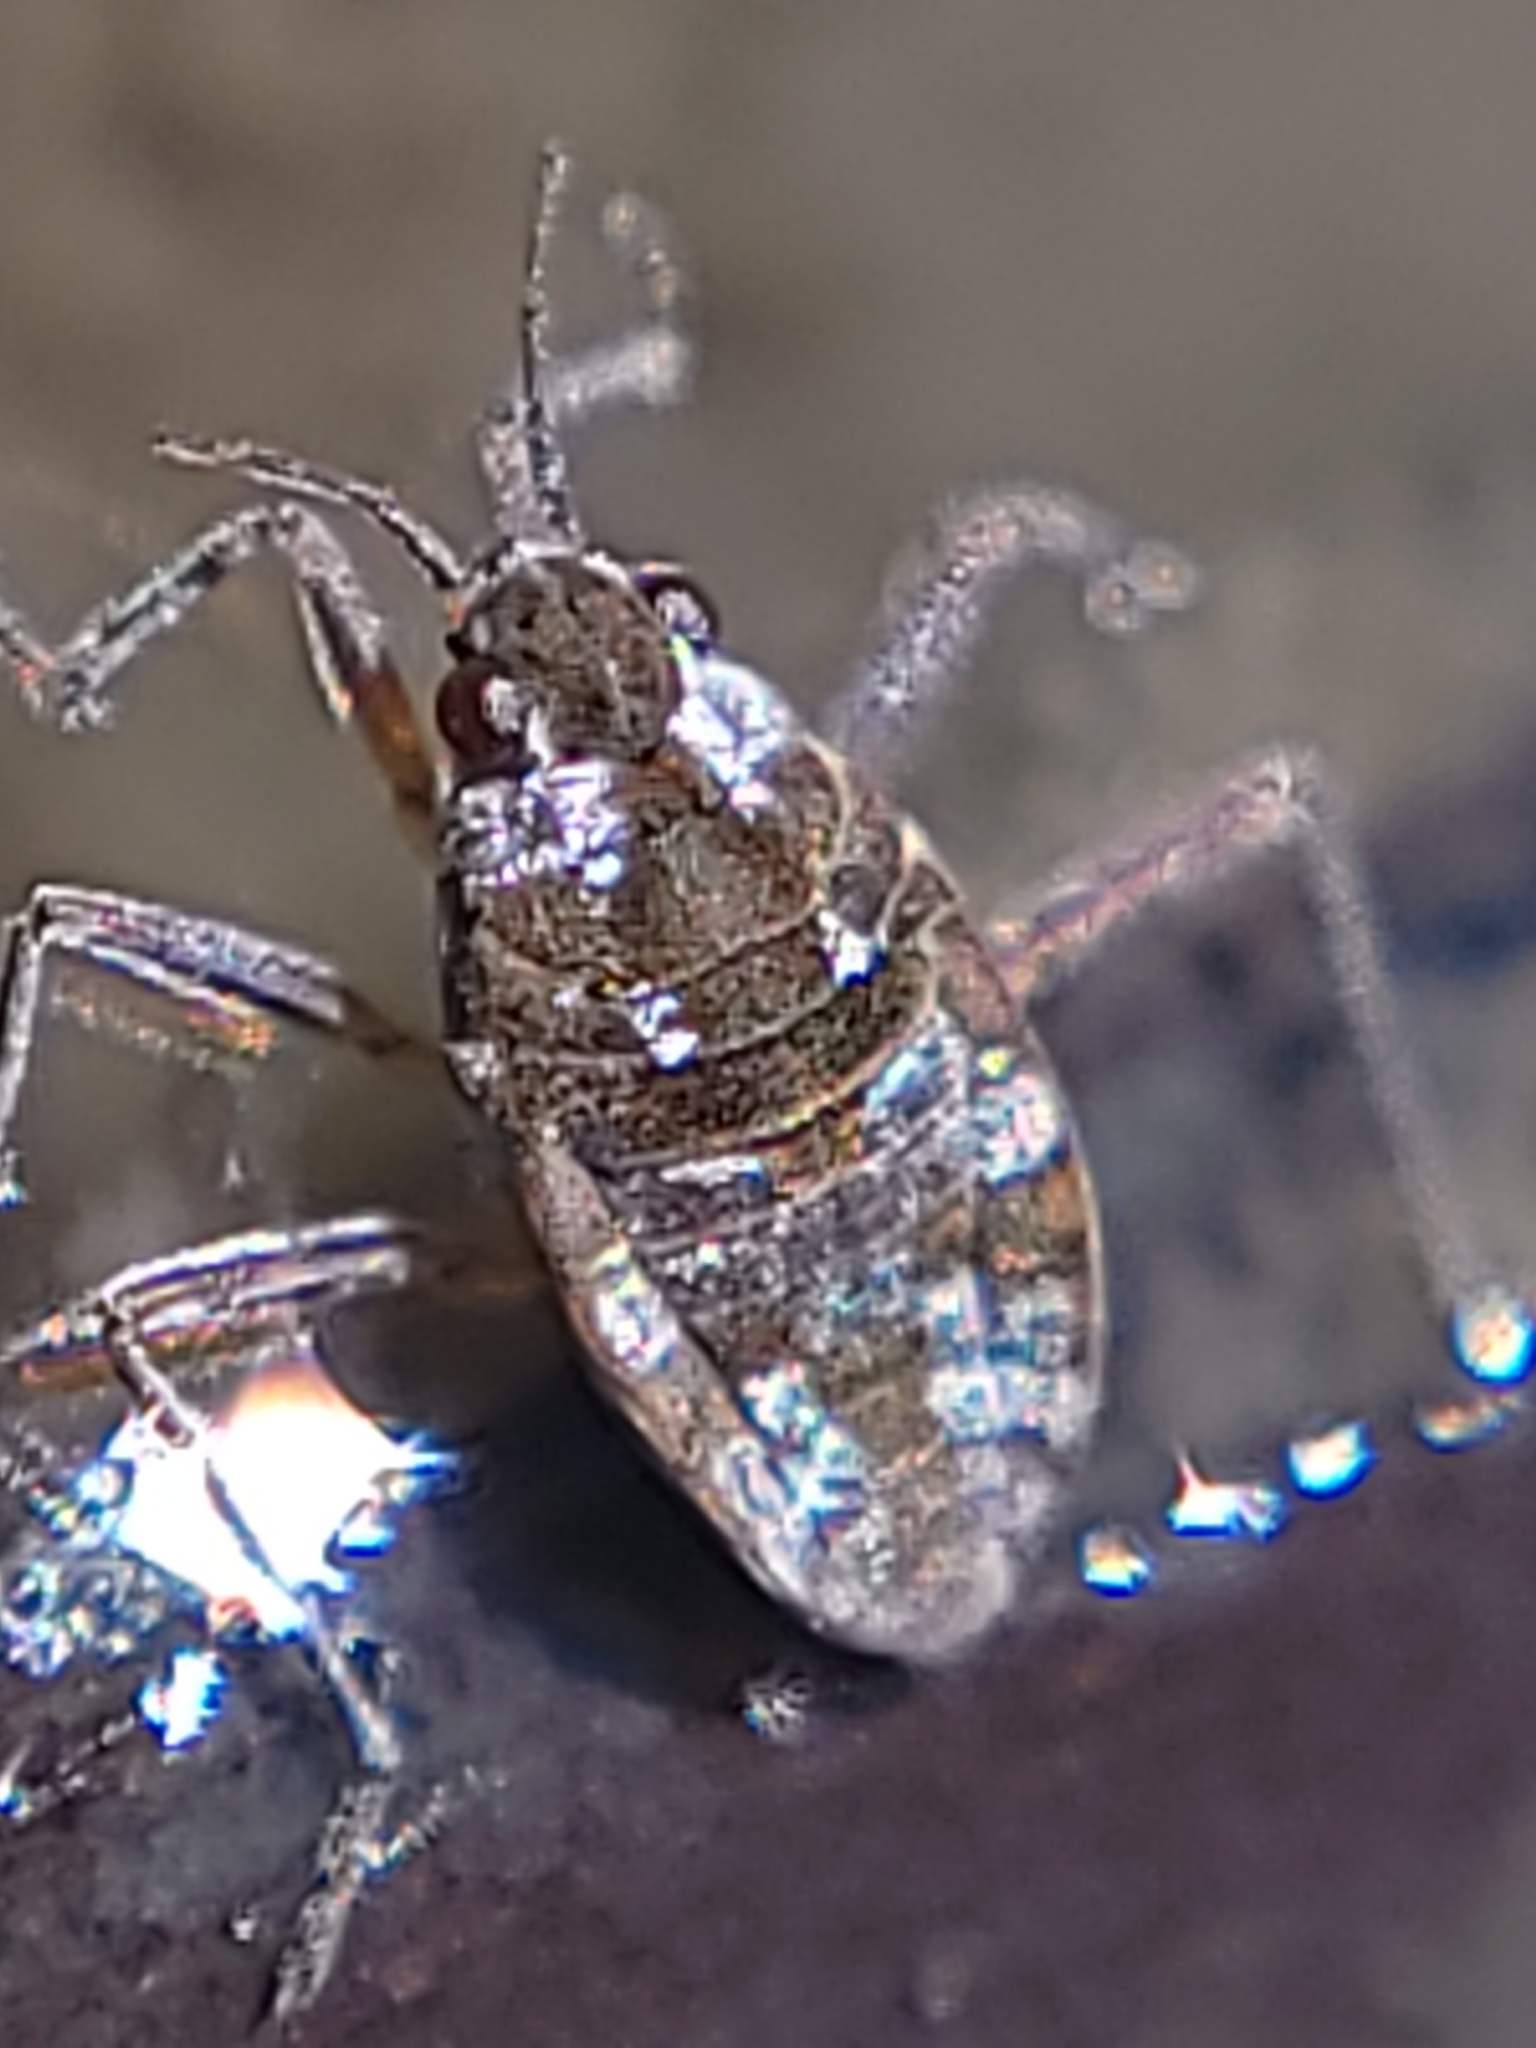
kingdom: Animalia
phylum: Arthropoda
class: Insecta
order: Hemiptera
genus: Kirkaldya
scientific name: Kirkaldya
